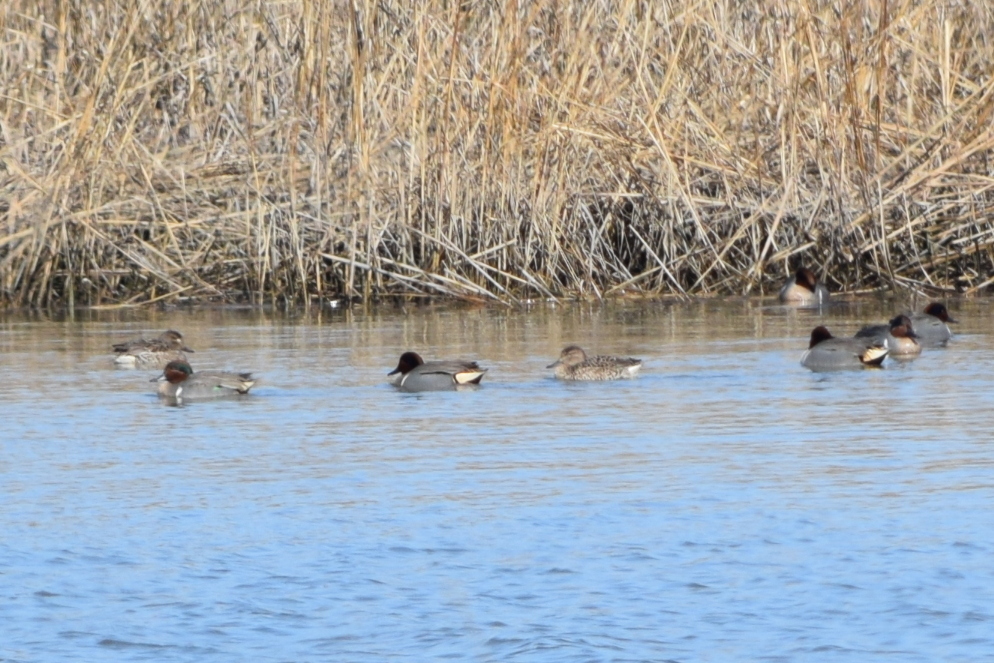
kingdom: Animalia
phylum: Chordata
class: Aves
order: Anseriformes
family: Anatidae
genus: Anas
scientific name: Anas crecca
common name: Eurasian teal
